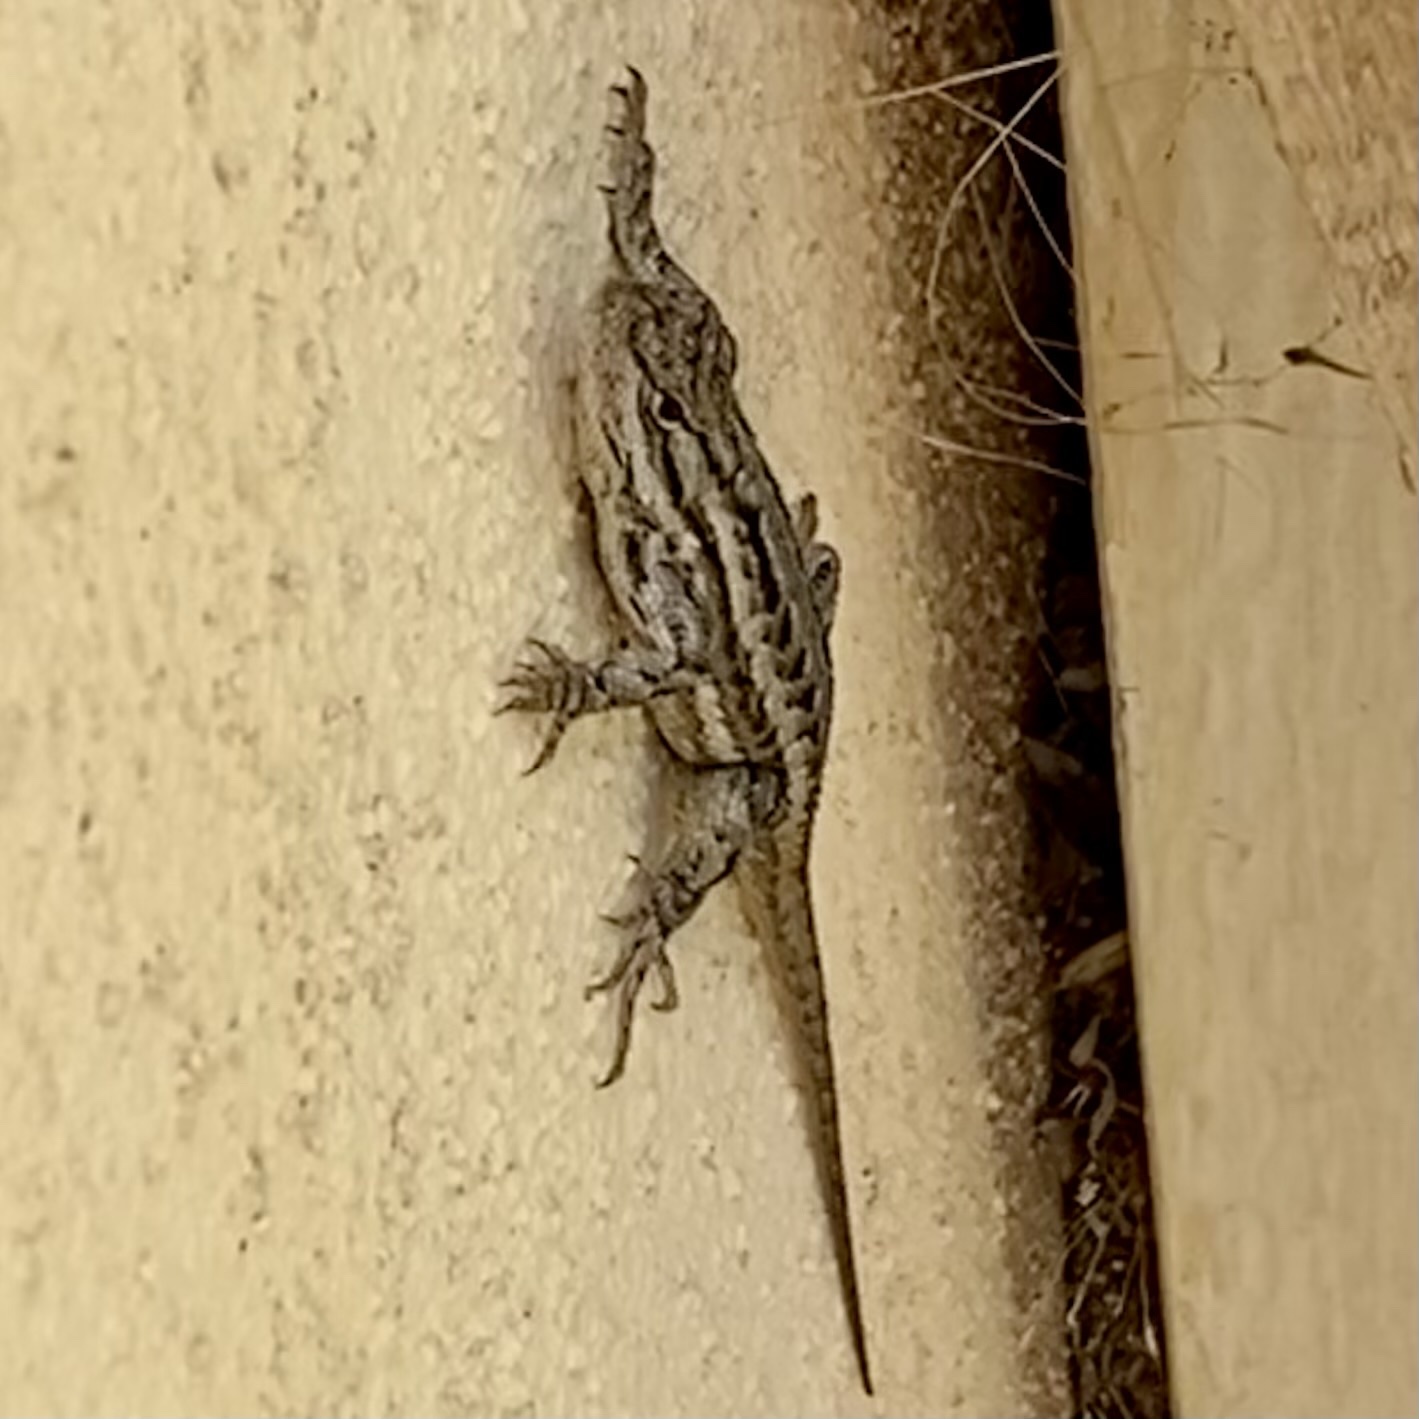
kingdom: Animalia
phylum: Chordata
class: Squamata
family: Phrynosomatidae
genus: Sceloporus
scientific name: Sceloporus cowlesi
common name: White sands prairie lizard
